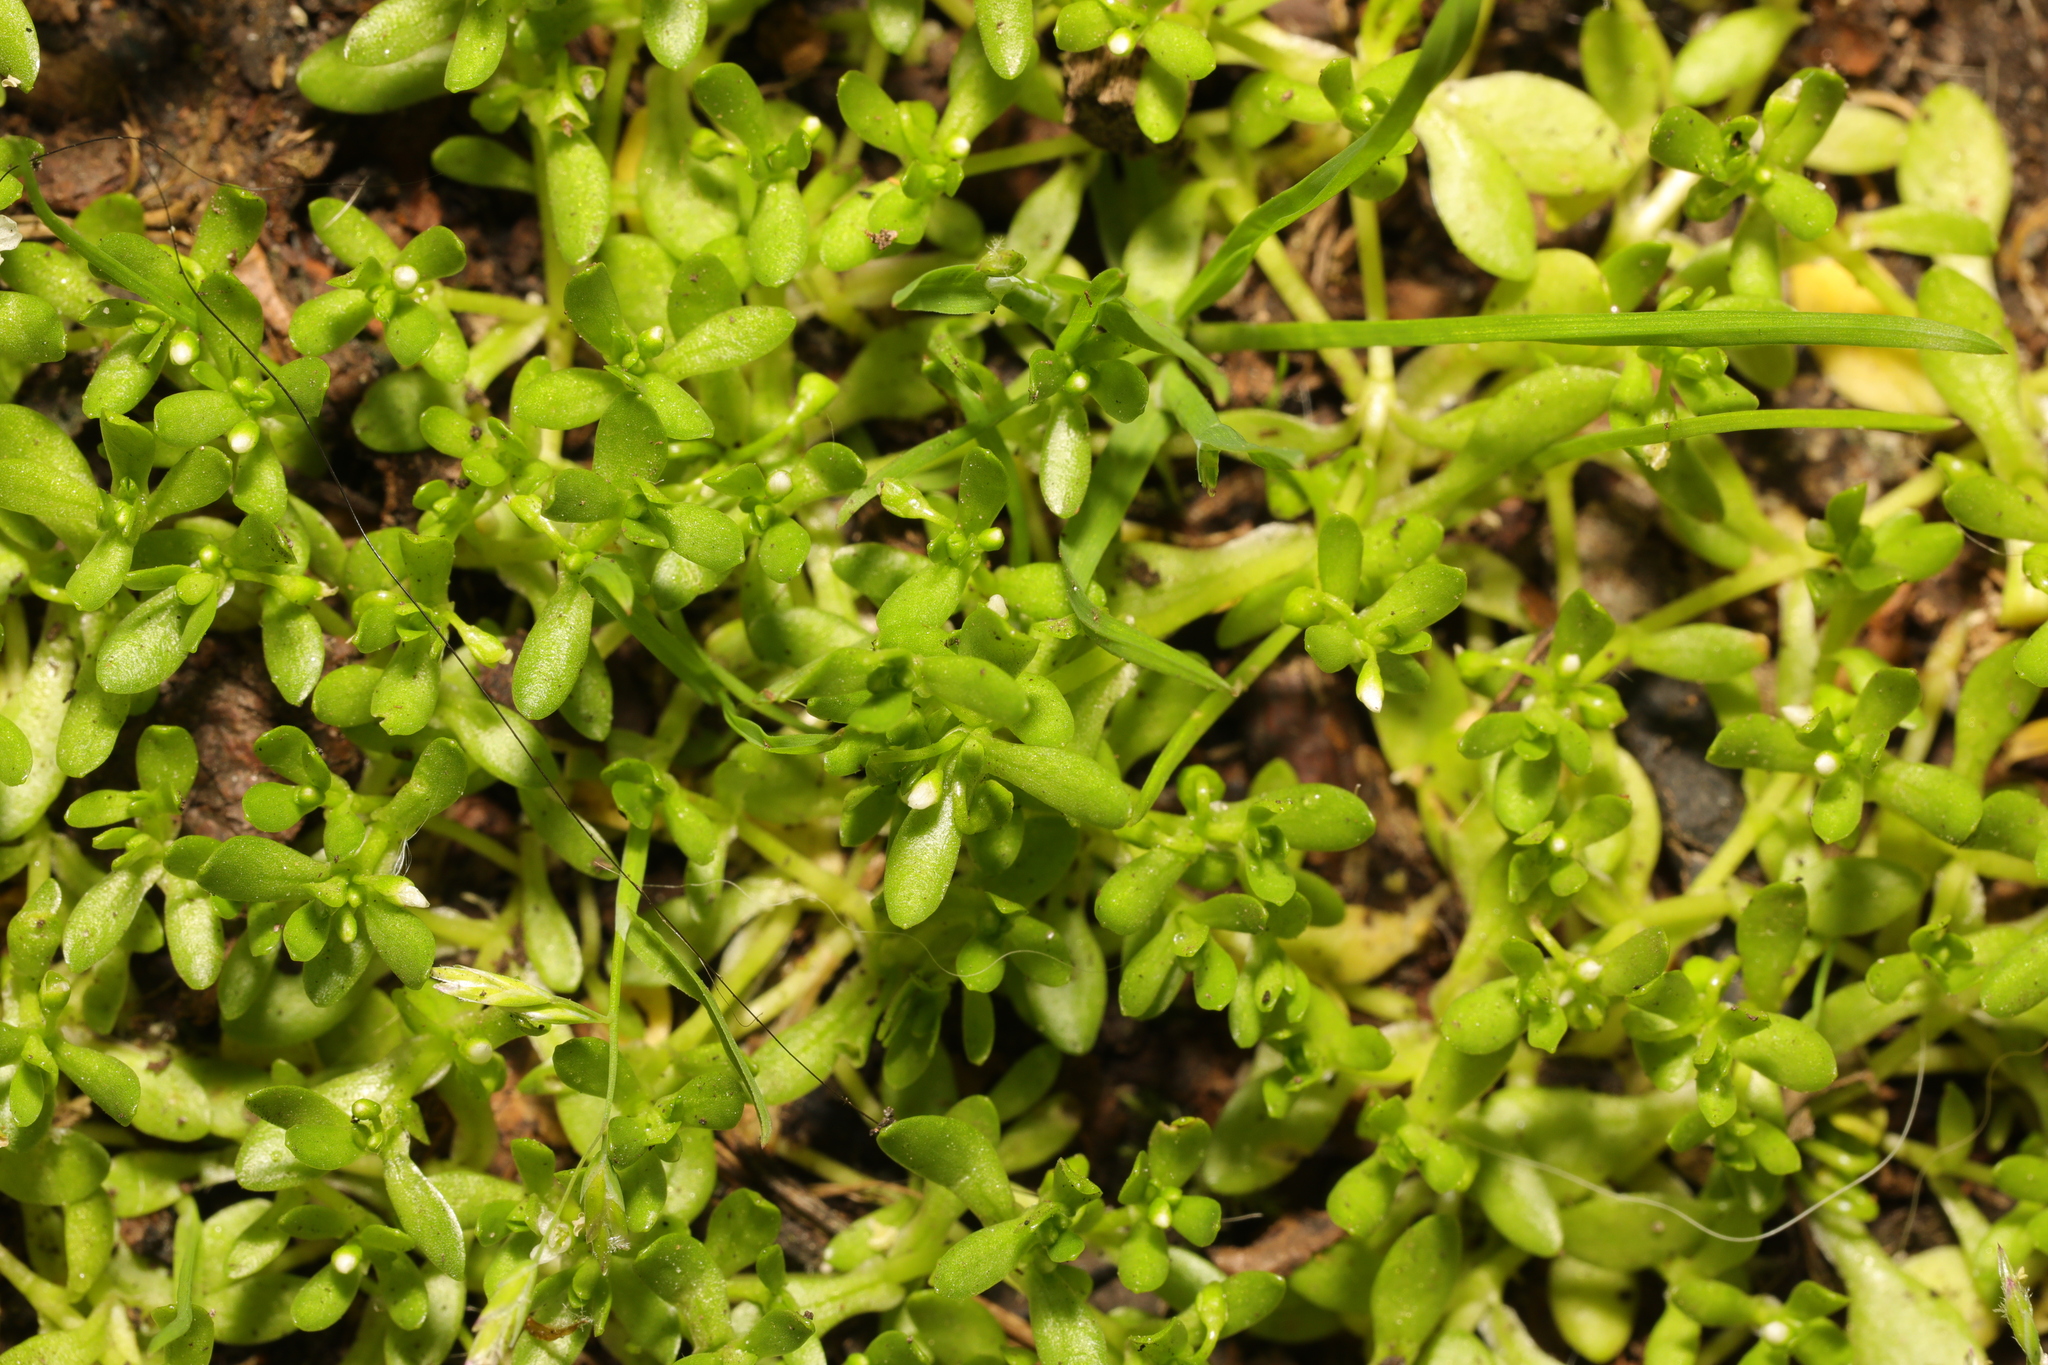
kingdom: Plantae
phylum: Tracheophyta
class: Magnoliopsida
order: Caryophyllales
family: Montiaceae
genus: Montia
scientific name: Montia fontana
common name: Blinks
